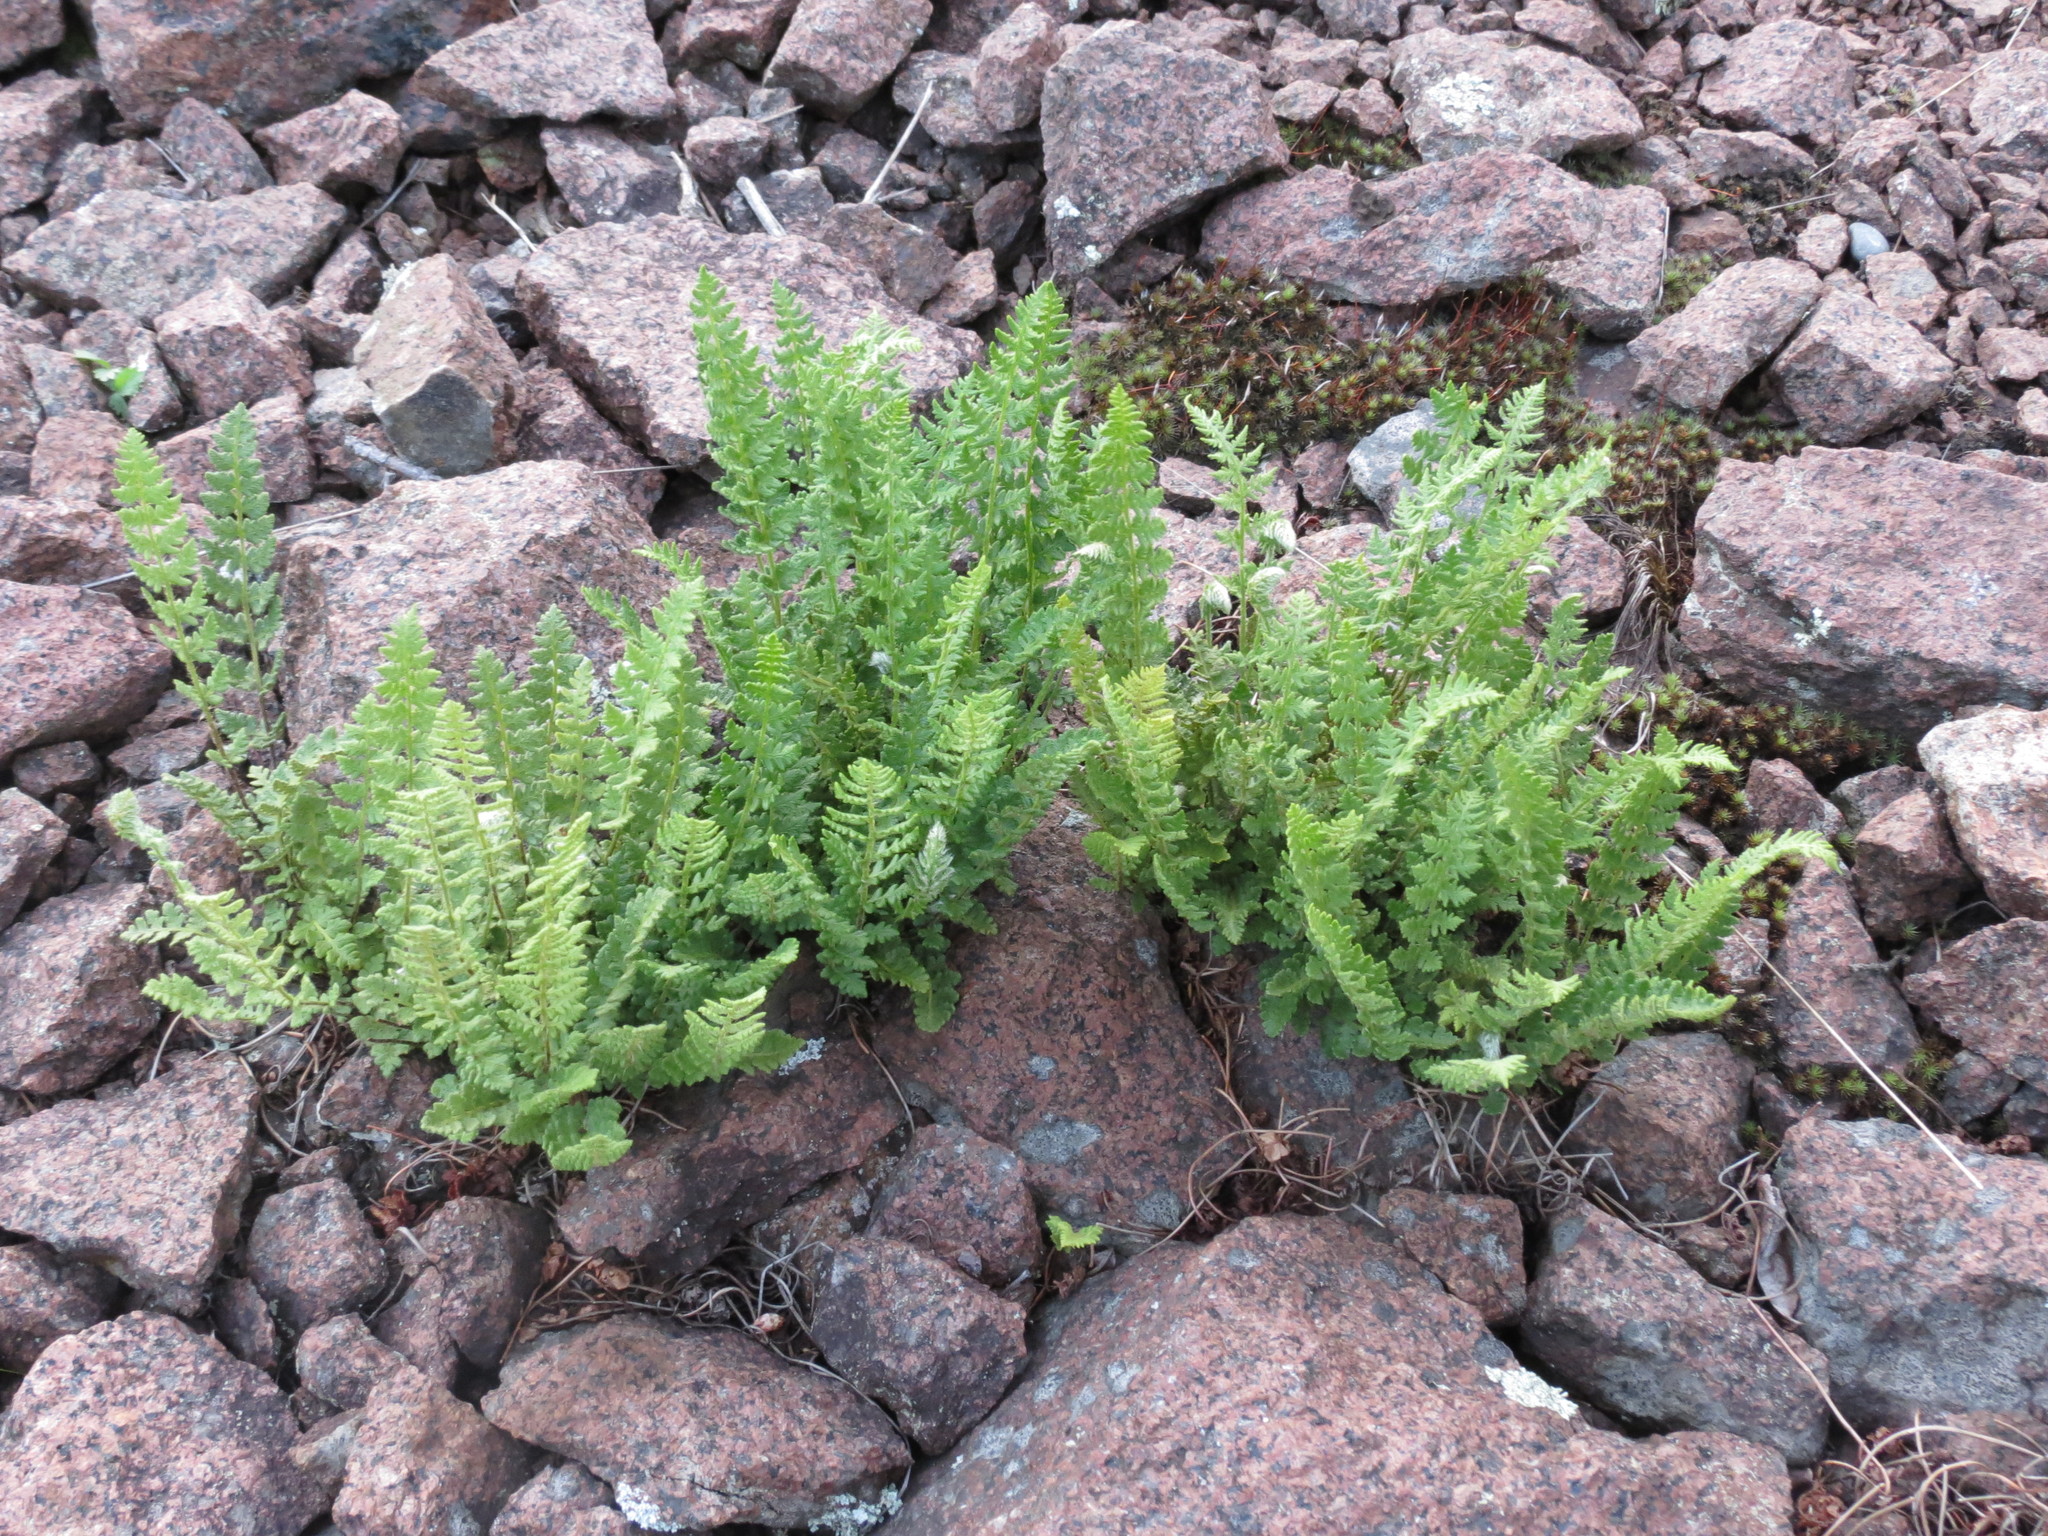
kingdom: Plantae
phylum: Tracheophyta
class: Polypodiopsida
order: Polypodiales
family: Woodsiaceae
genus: Woodsia
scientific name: Woodsia ilvensis
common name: Fragrant woodsia
